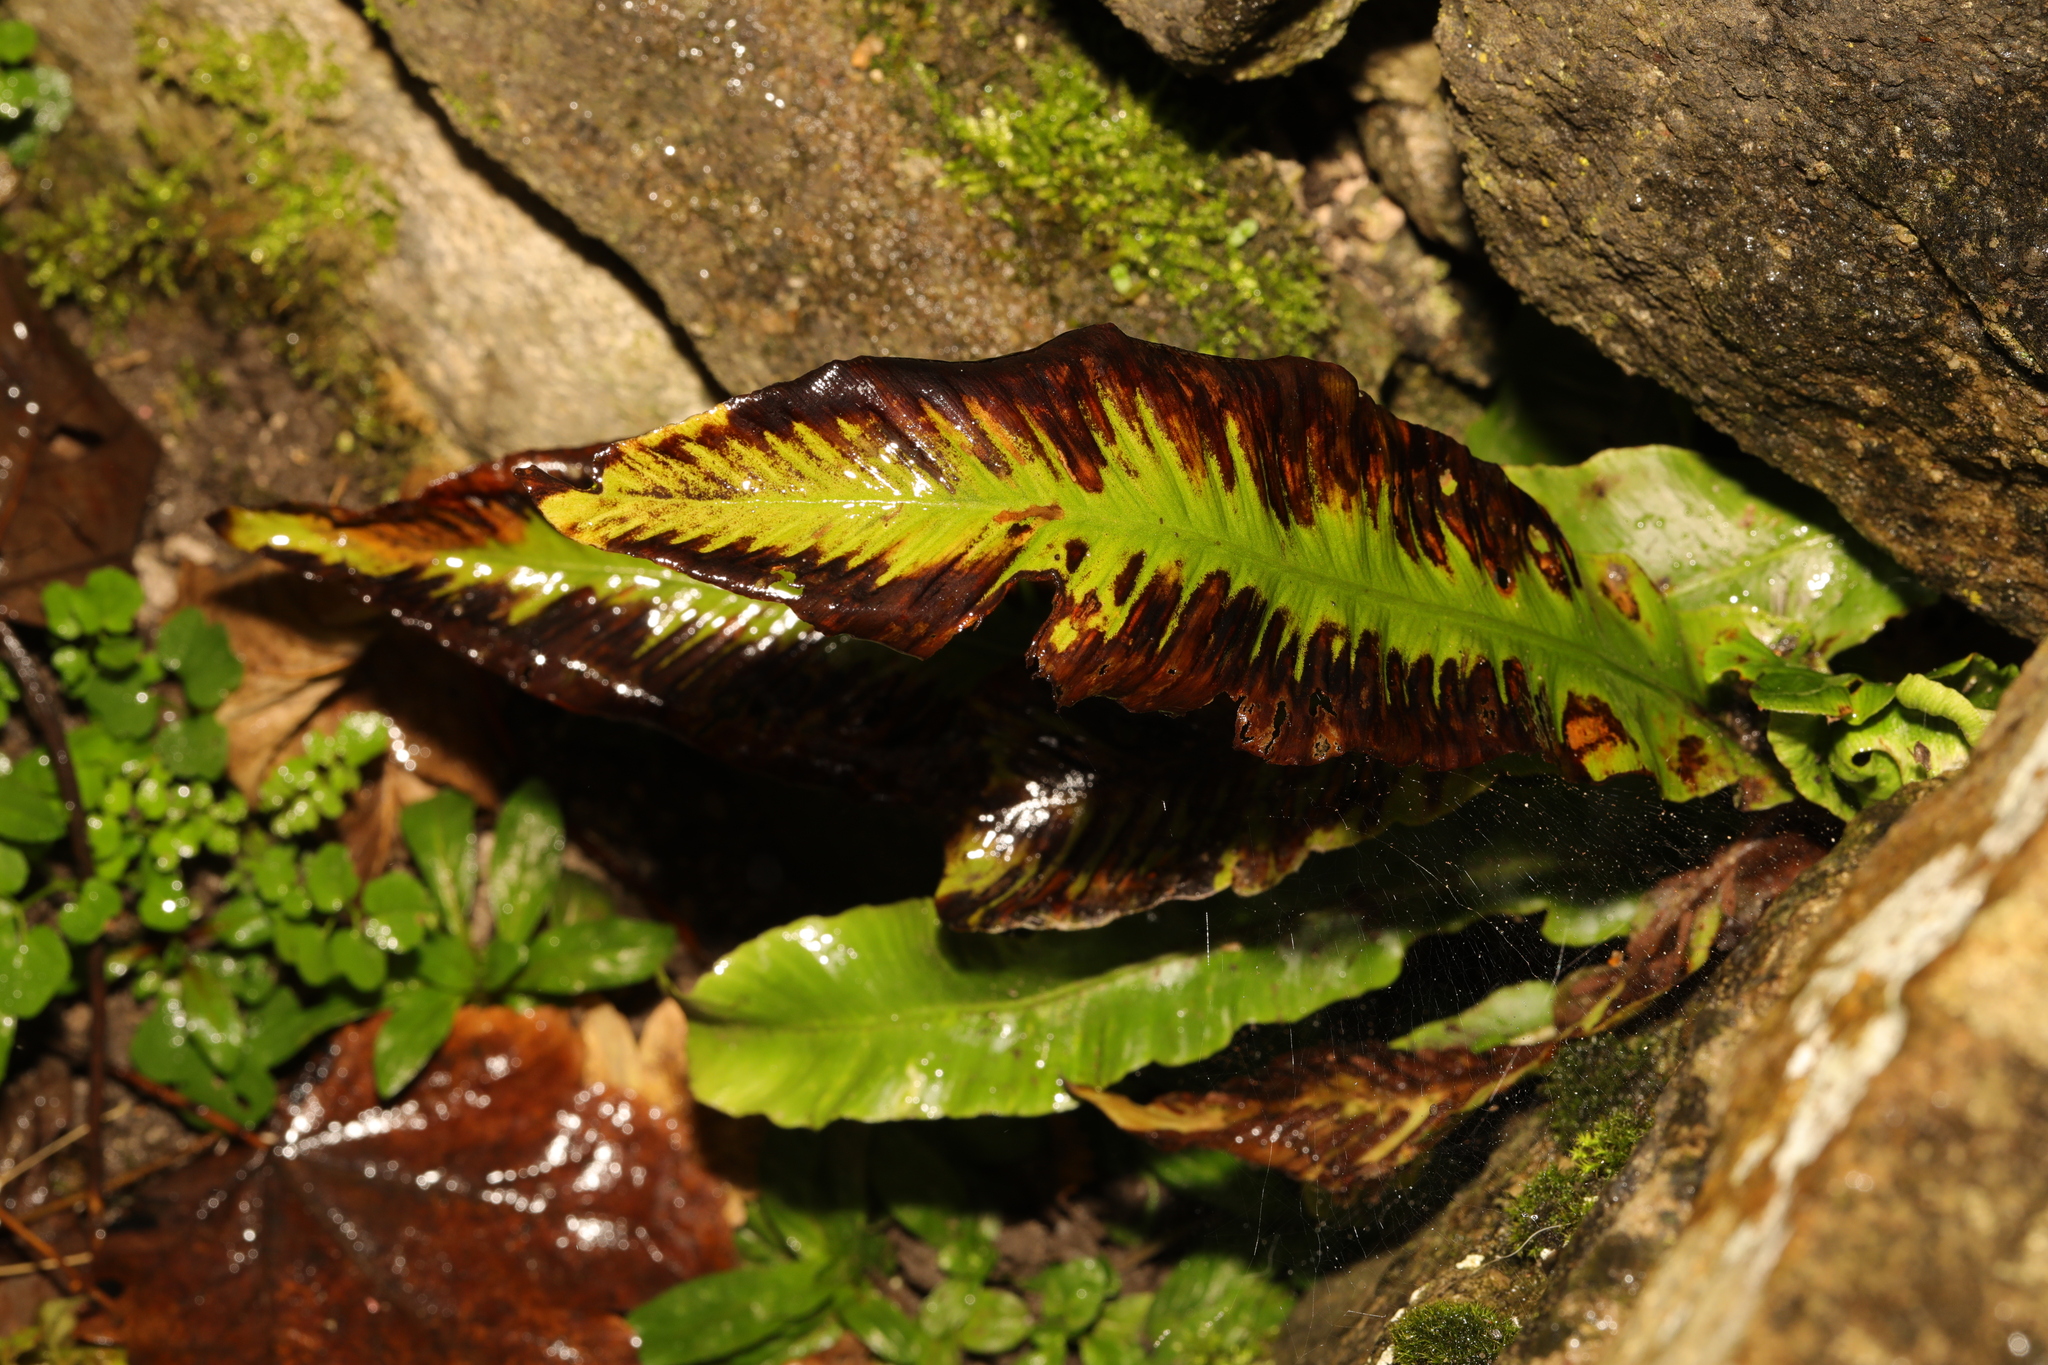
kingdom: Plantae
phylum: Tracheophyta
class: Polypodiopsida
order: Polypodiales
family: Aspleniaceae
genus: Asplenium
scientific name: Asplenium scolopendrium
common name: Hart's-tongue fern
